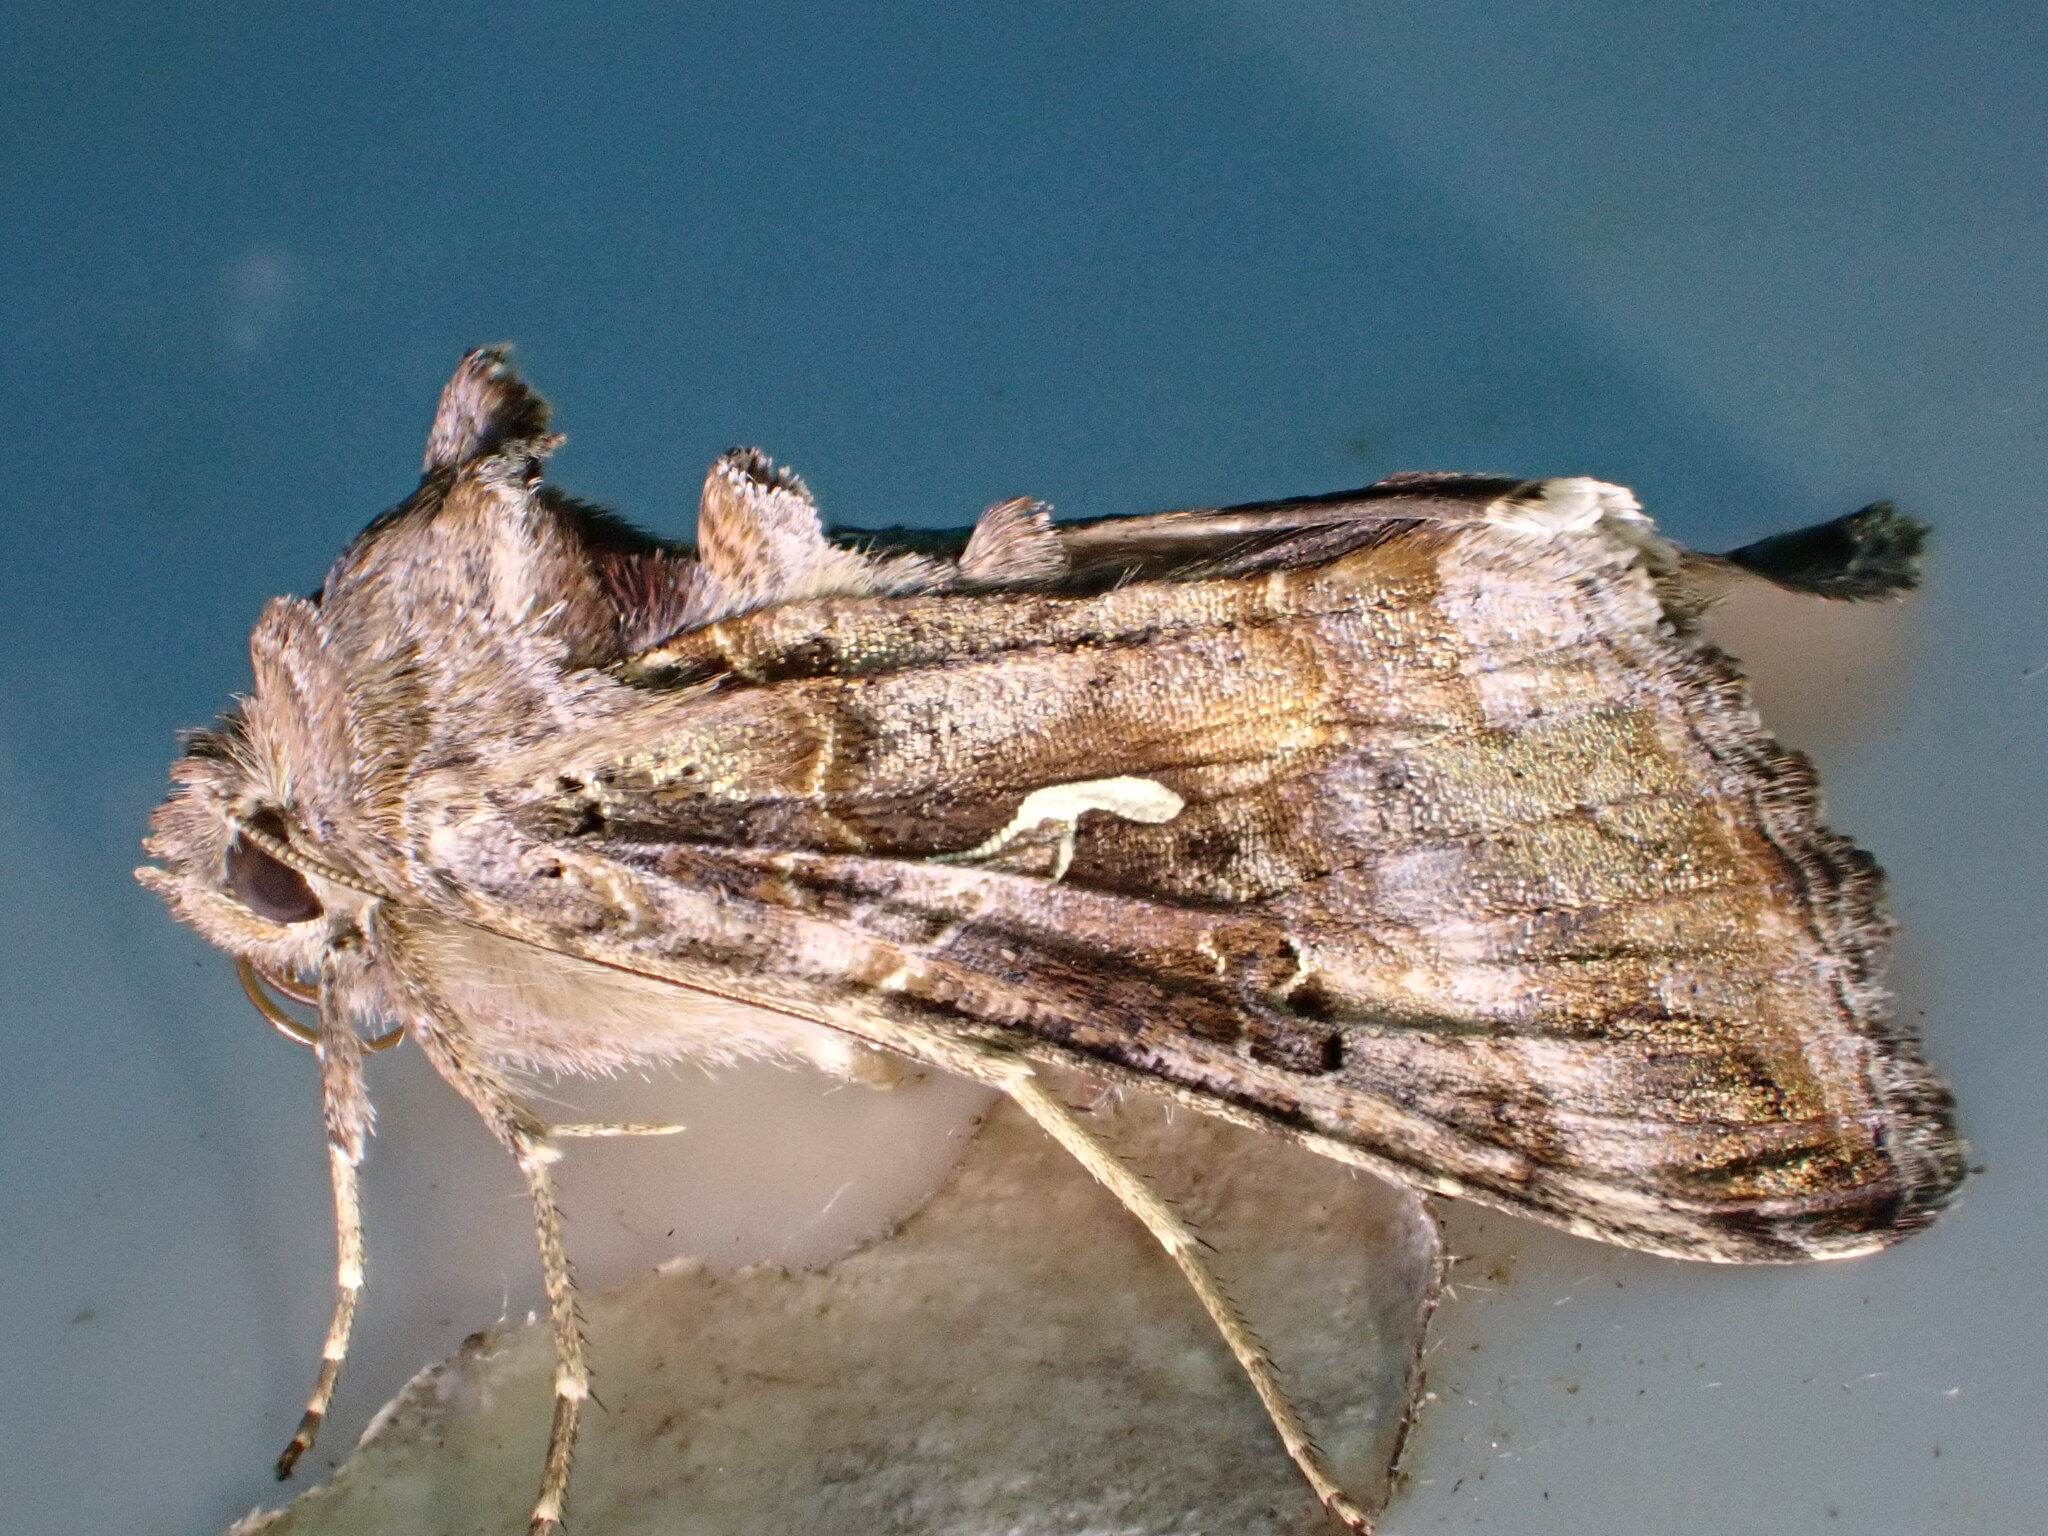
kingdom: Animalia
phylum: Arthropoda
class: Insecta
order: Lepidoptera
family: Noctuidae
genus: Autographa
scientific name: Autographa gamma
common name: Silver y
